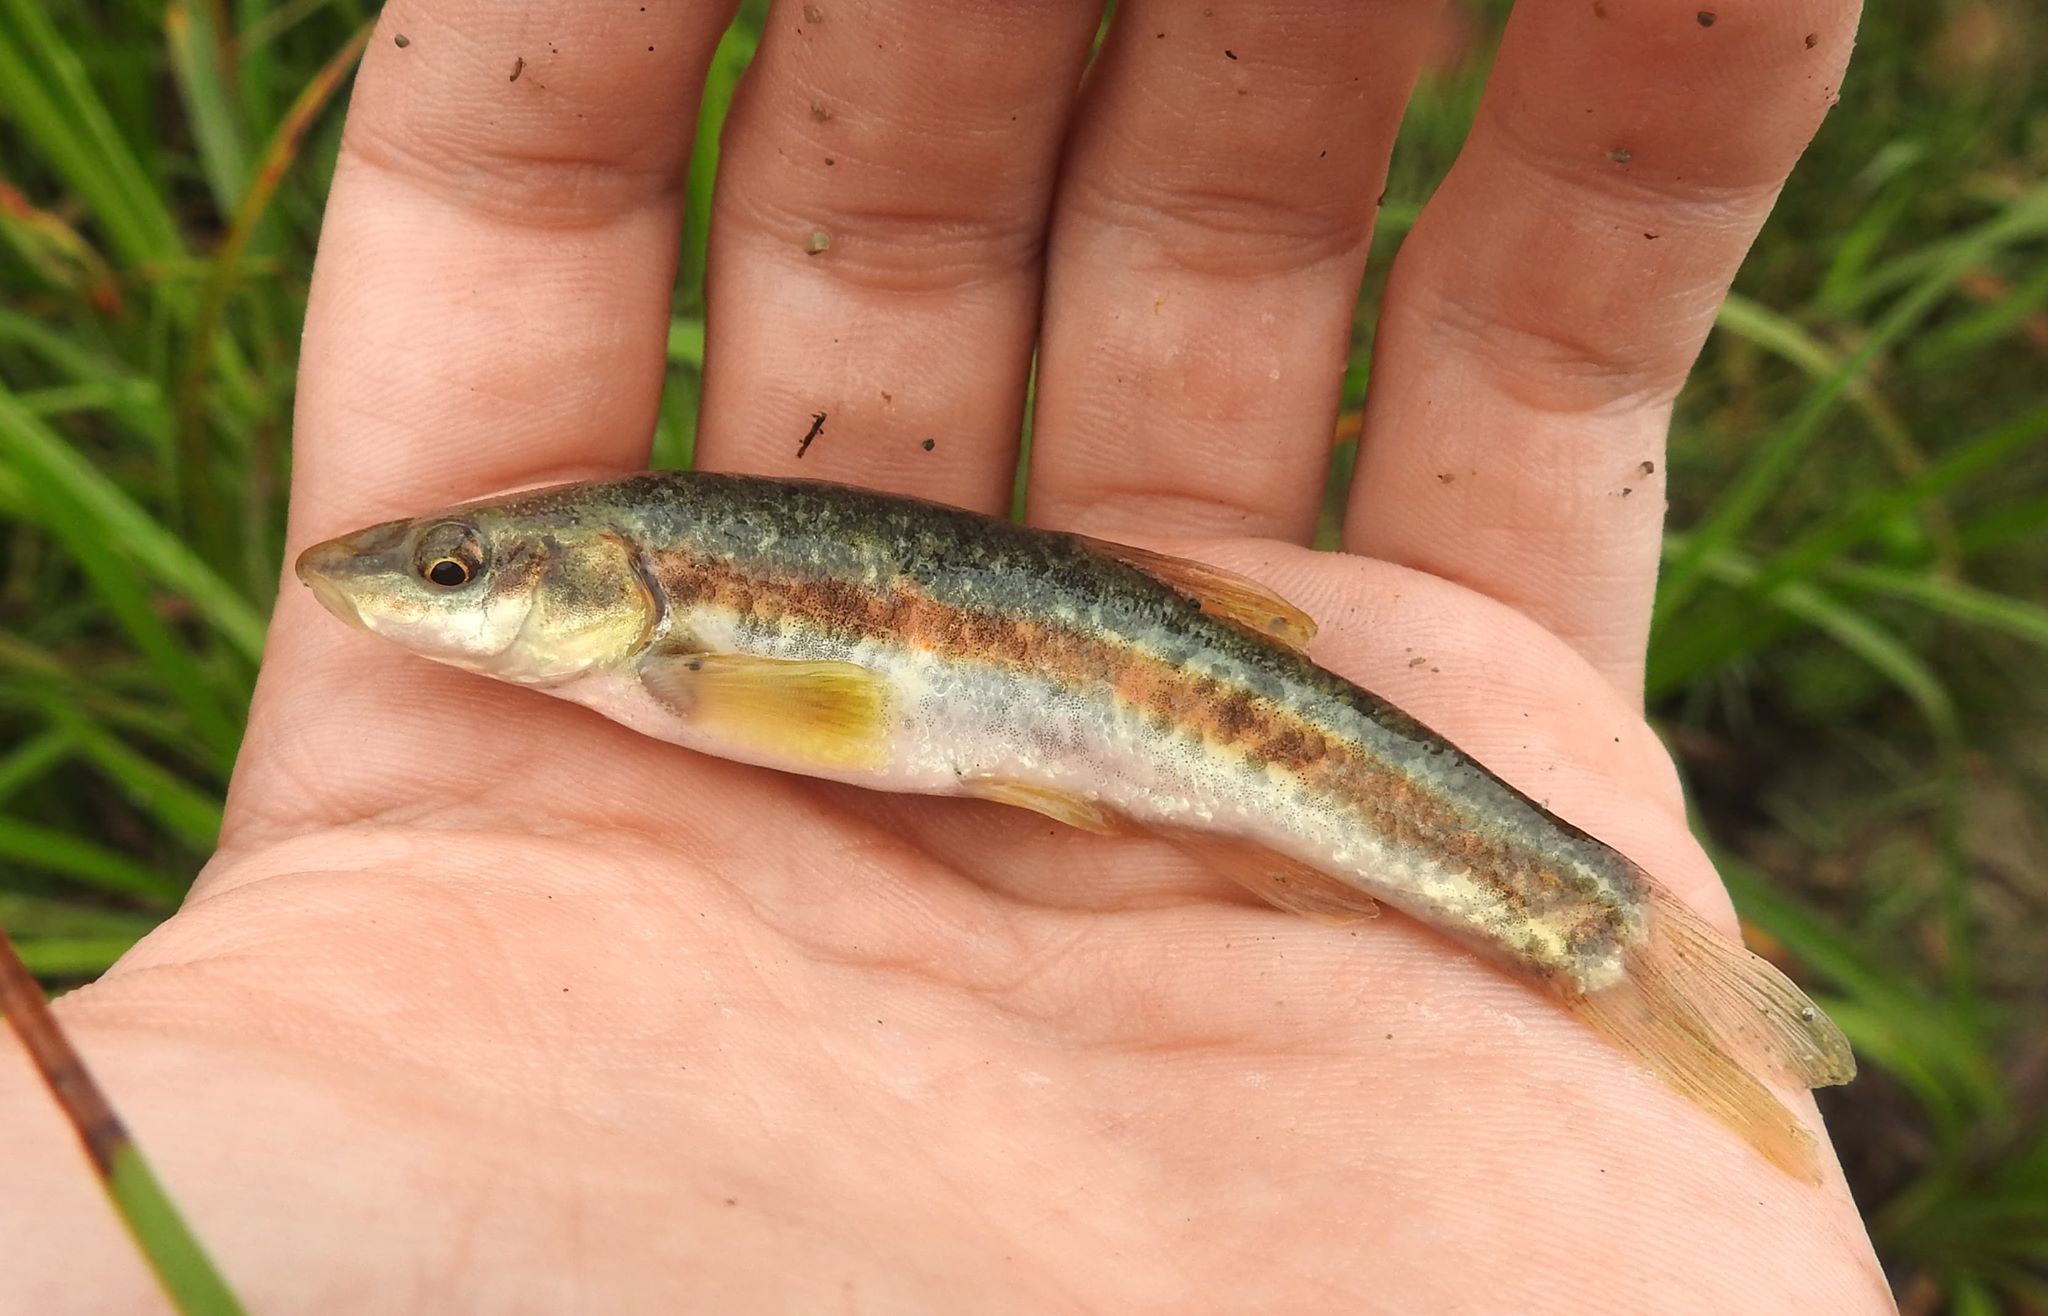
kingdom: Animalia
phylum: Chordata
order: Cypriniformes
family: Cyprinidae
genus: Rhinichthys
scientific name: Rhinichthys obtusus
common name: Western blacknose dace
